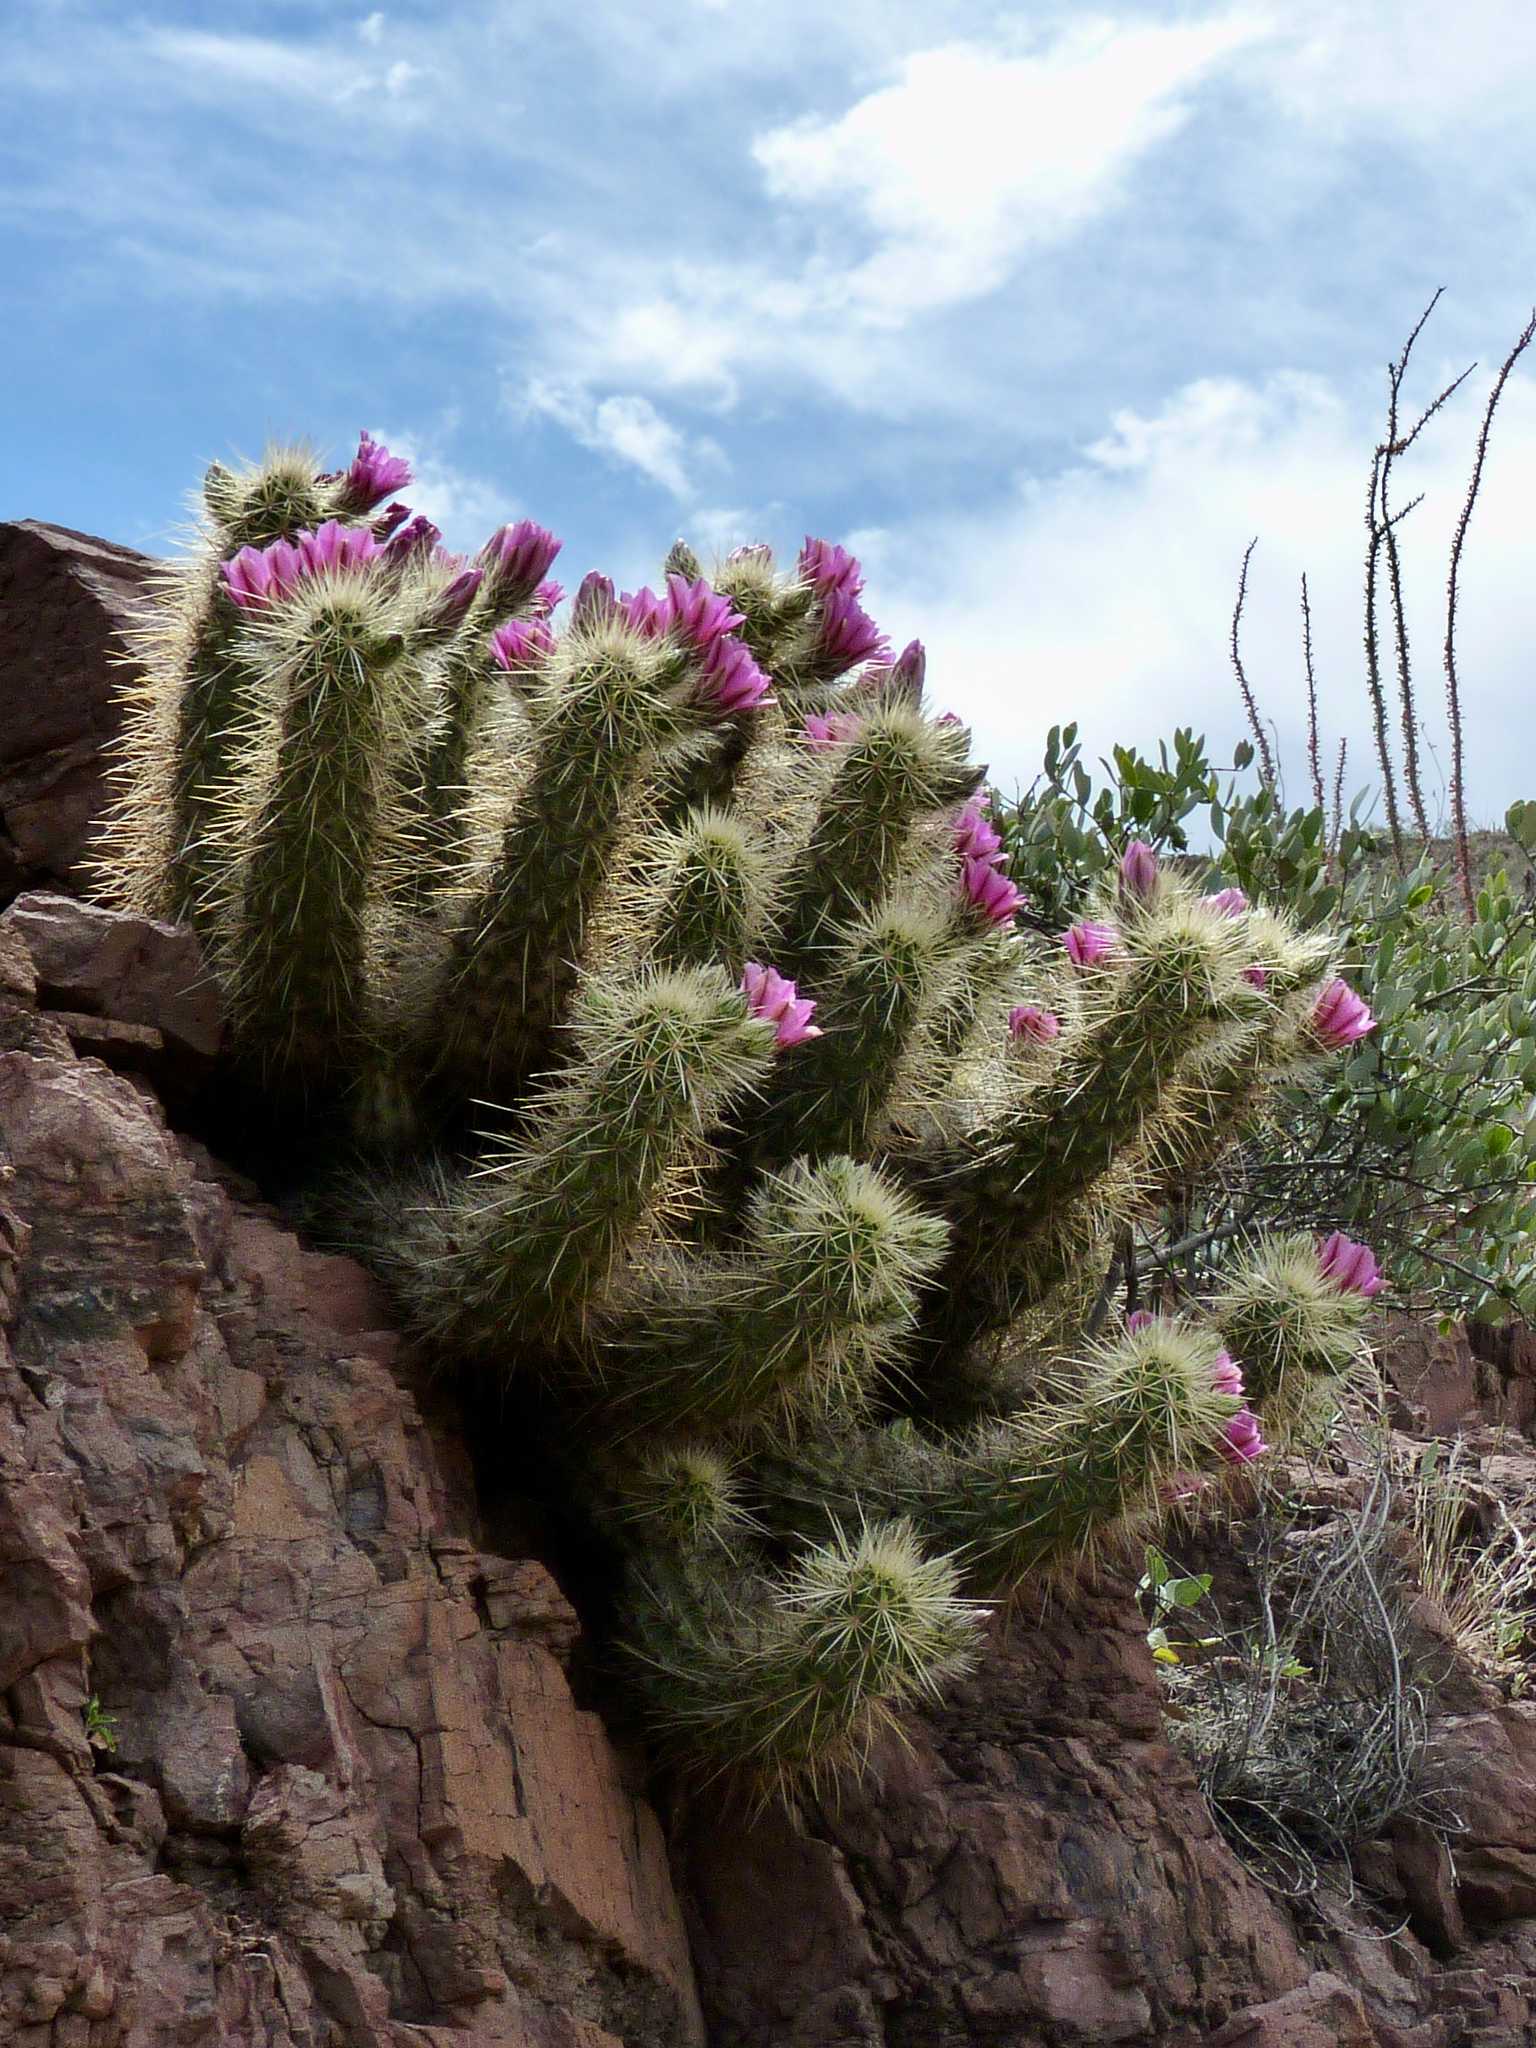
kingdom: Plantae
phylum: Tracheophyta
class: Magnoliopsida
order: Caryophyllales
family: Cactaceae
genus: Echinocereus
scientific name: Echinocereus nicholii
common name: Nichol's hedgehog cactus
